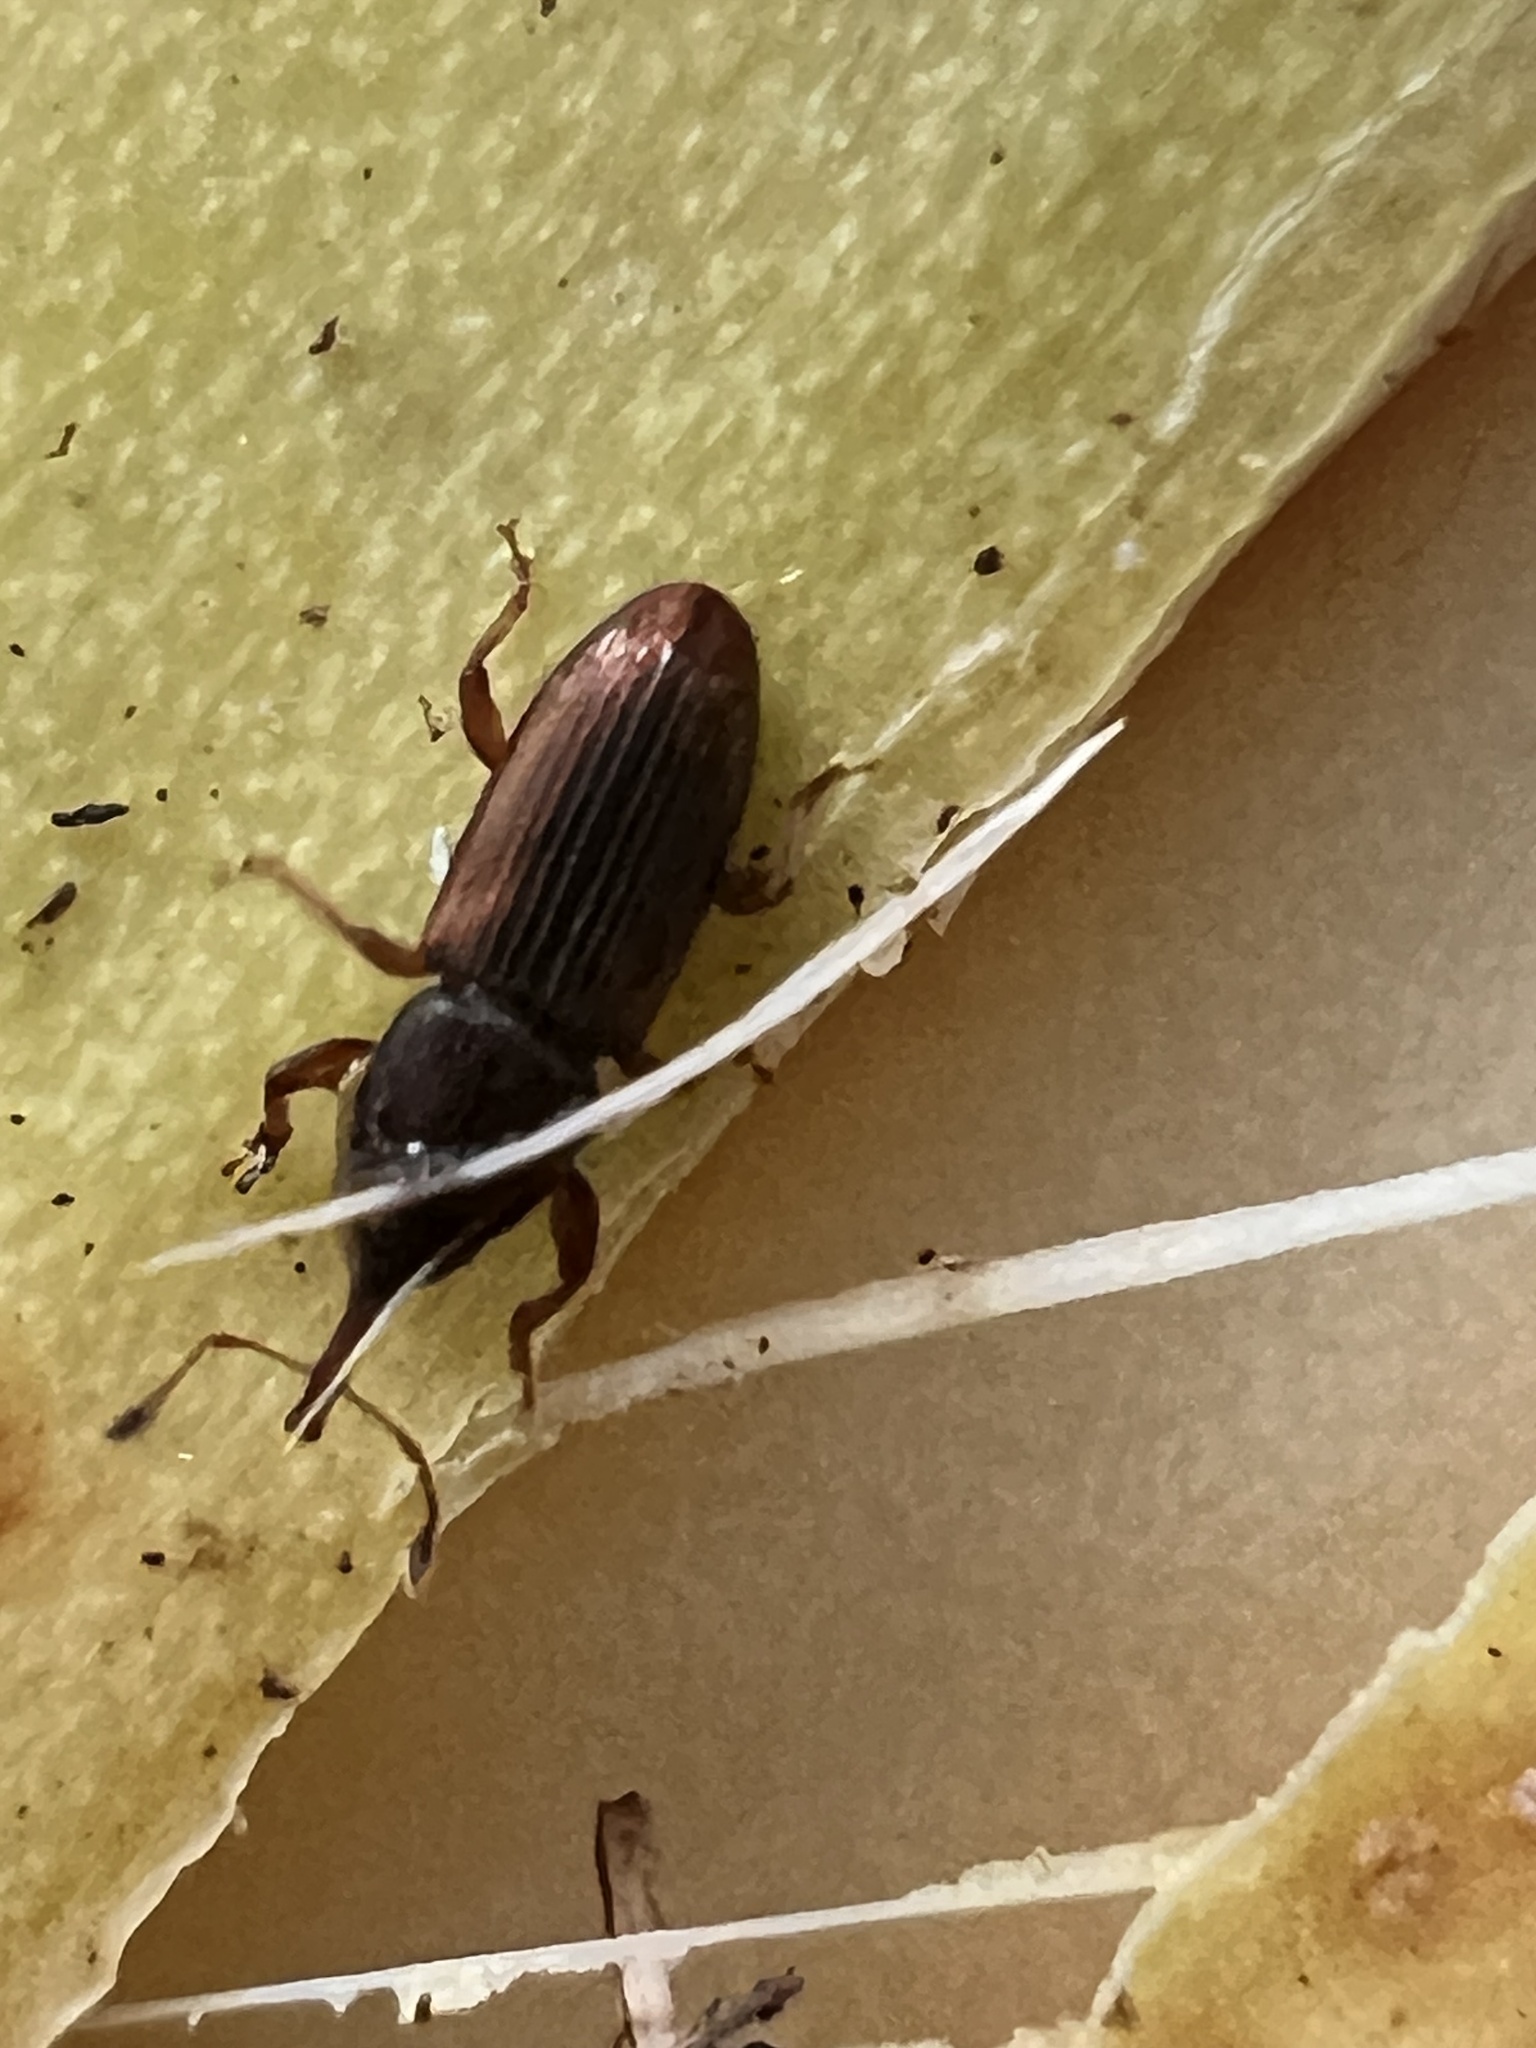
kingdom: Animalia
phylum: Arthropoda
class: Insecta
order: Coleoptera
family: Curculionidae
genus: Arecophaga
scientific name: Arecophaga varia
